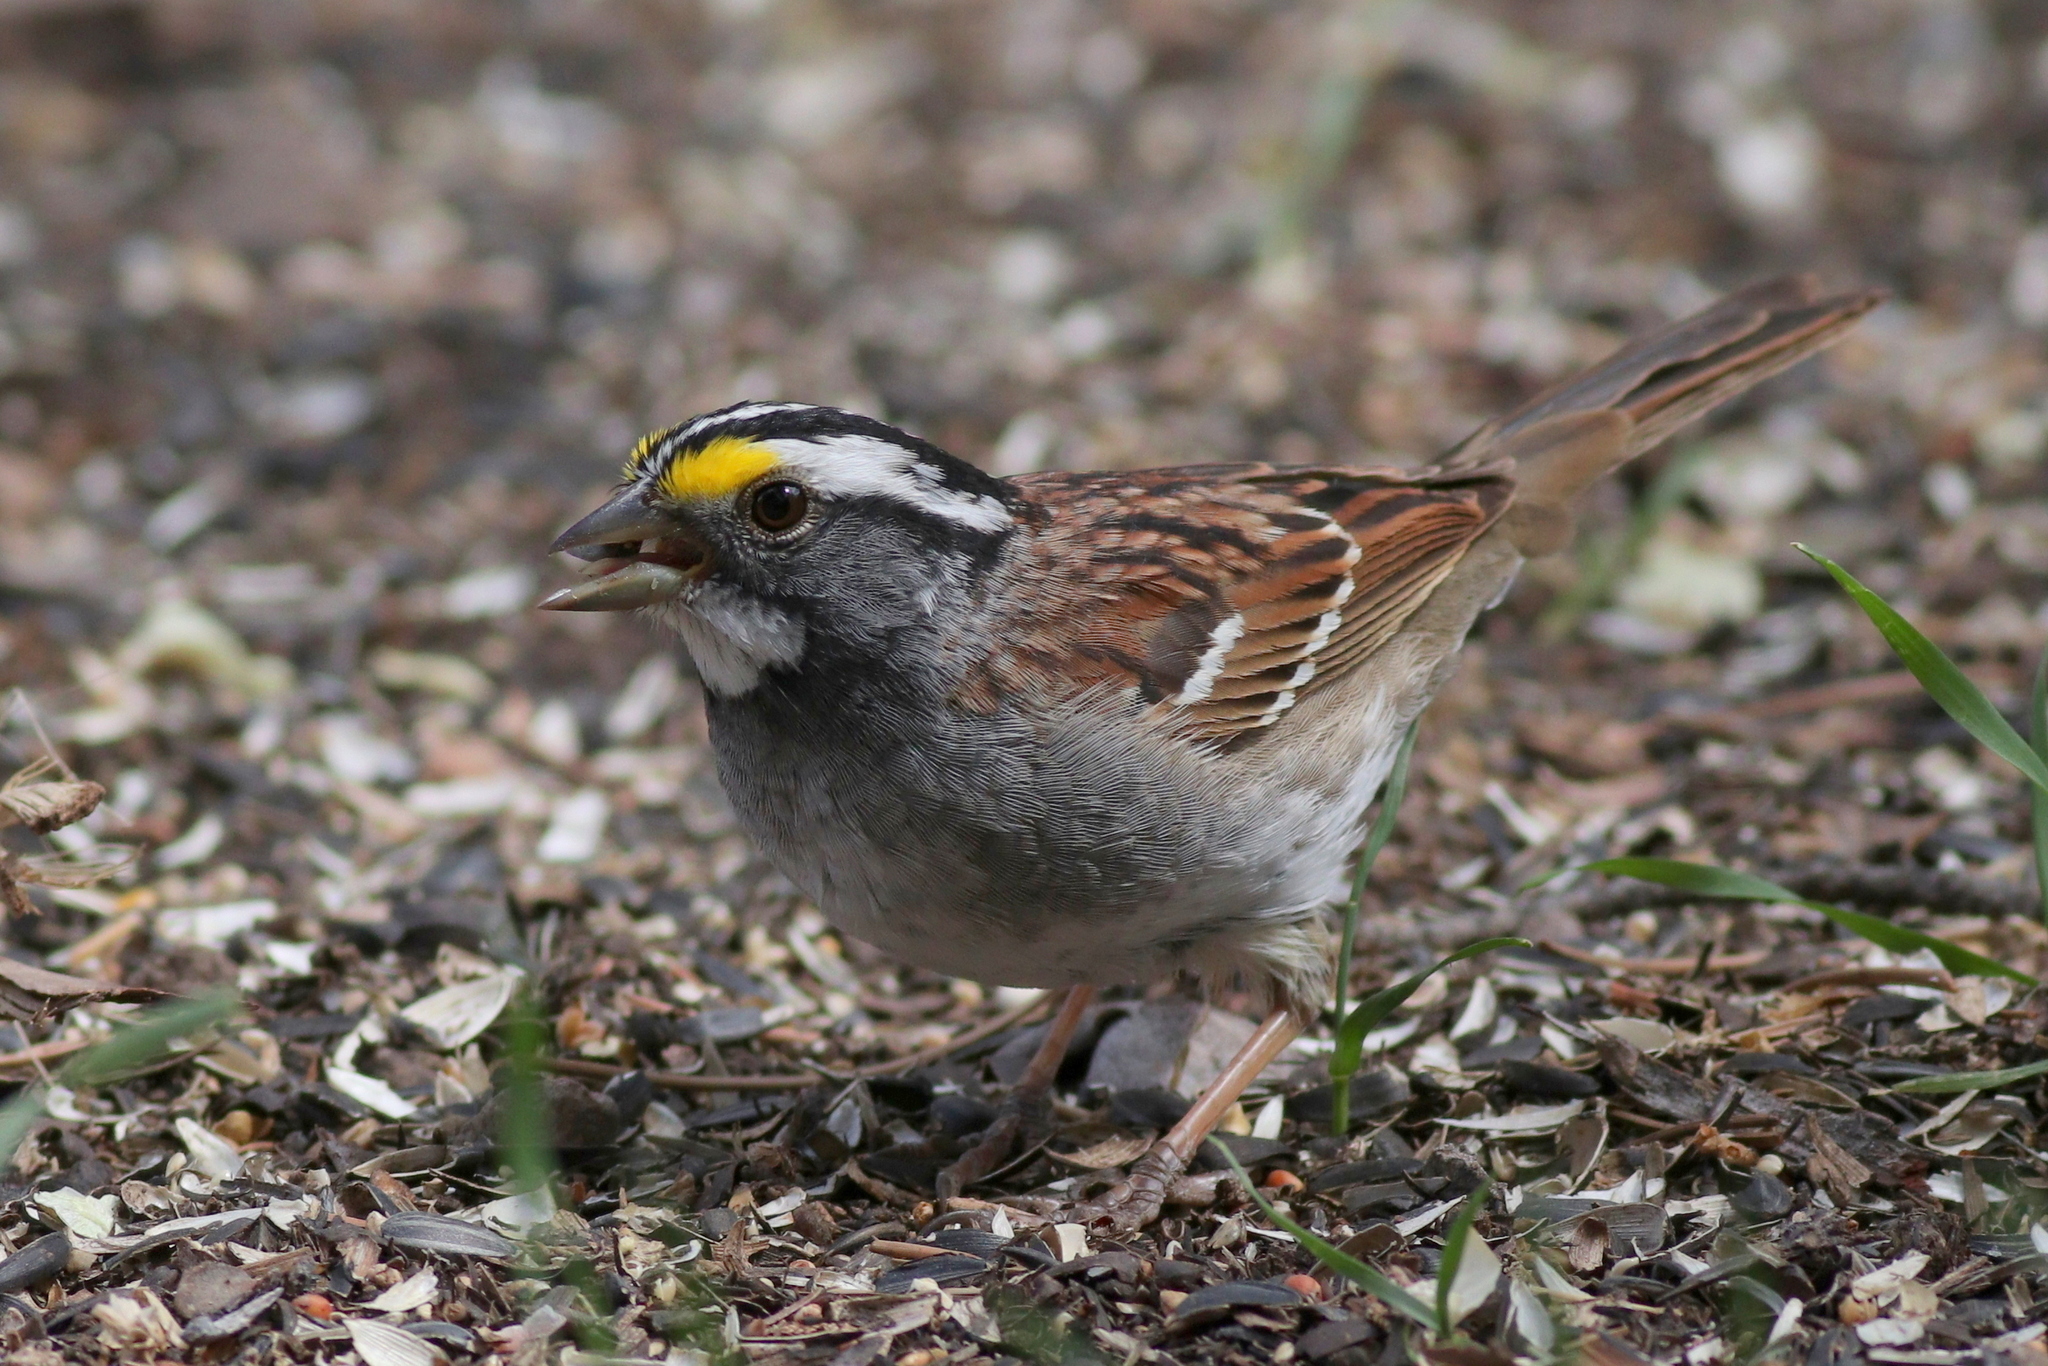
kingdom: Animalia
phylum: Chordata
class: Aves
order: Passeriformes
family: Passerellidae
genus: Zonotrichia
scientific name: Zonotrichia albicollis
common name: White-throated sparrow
